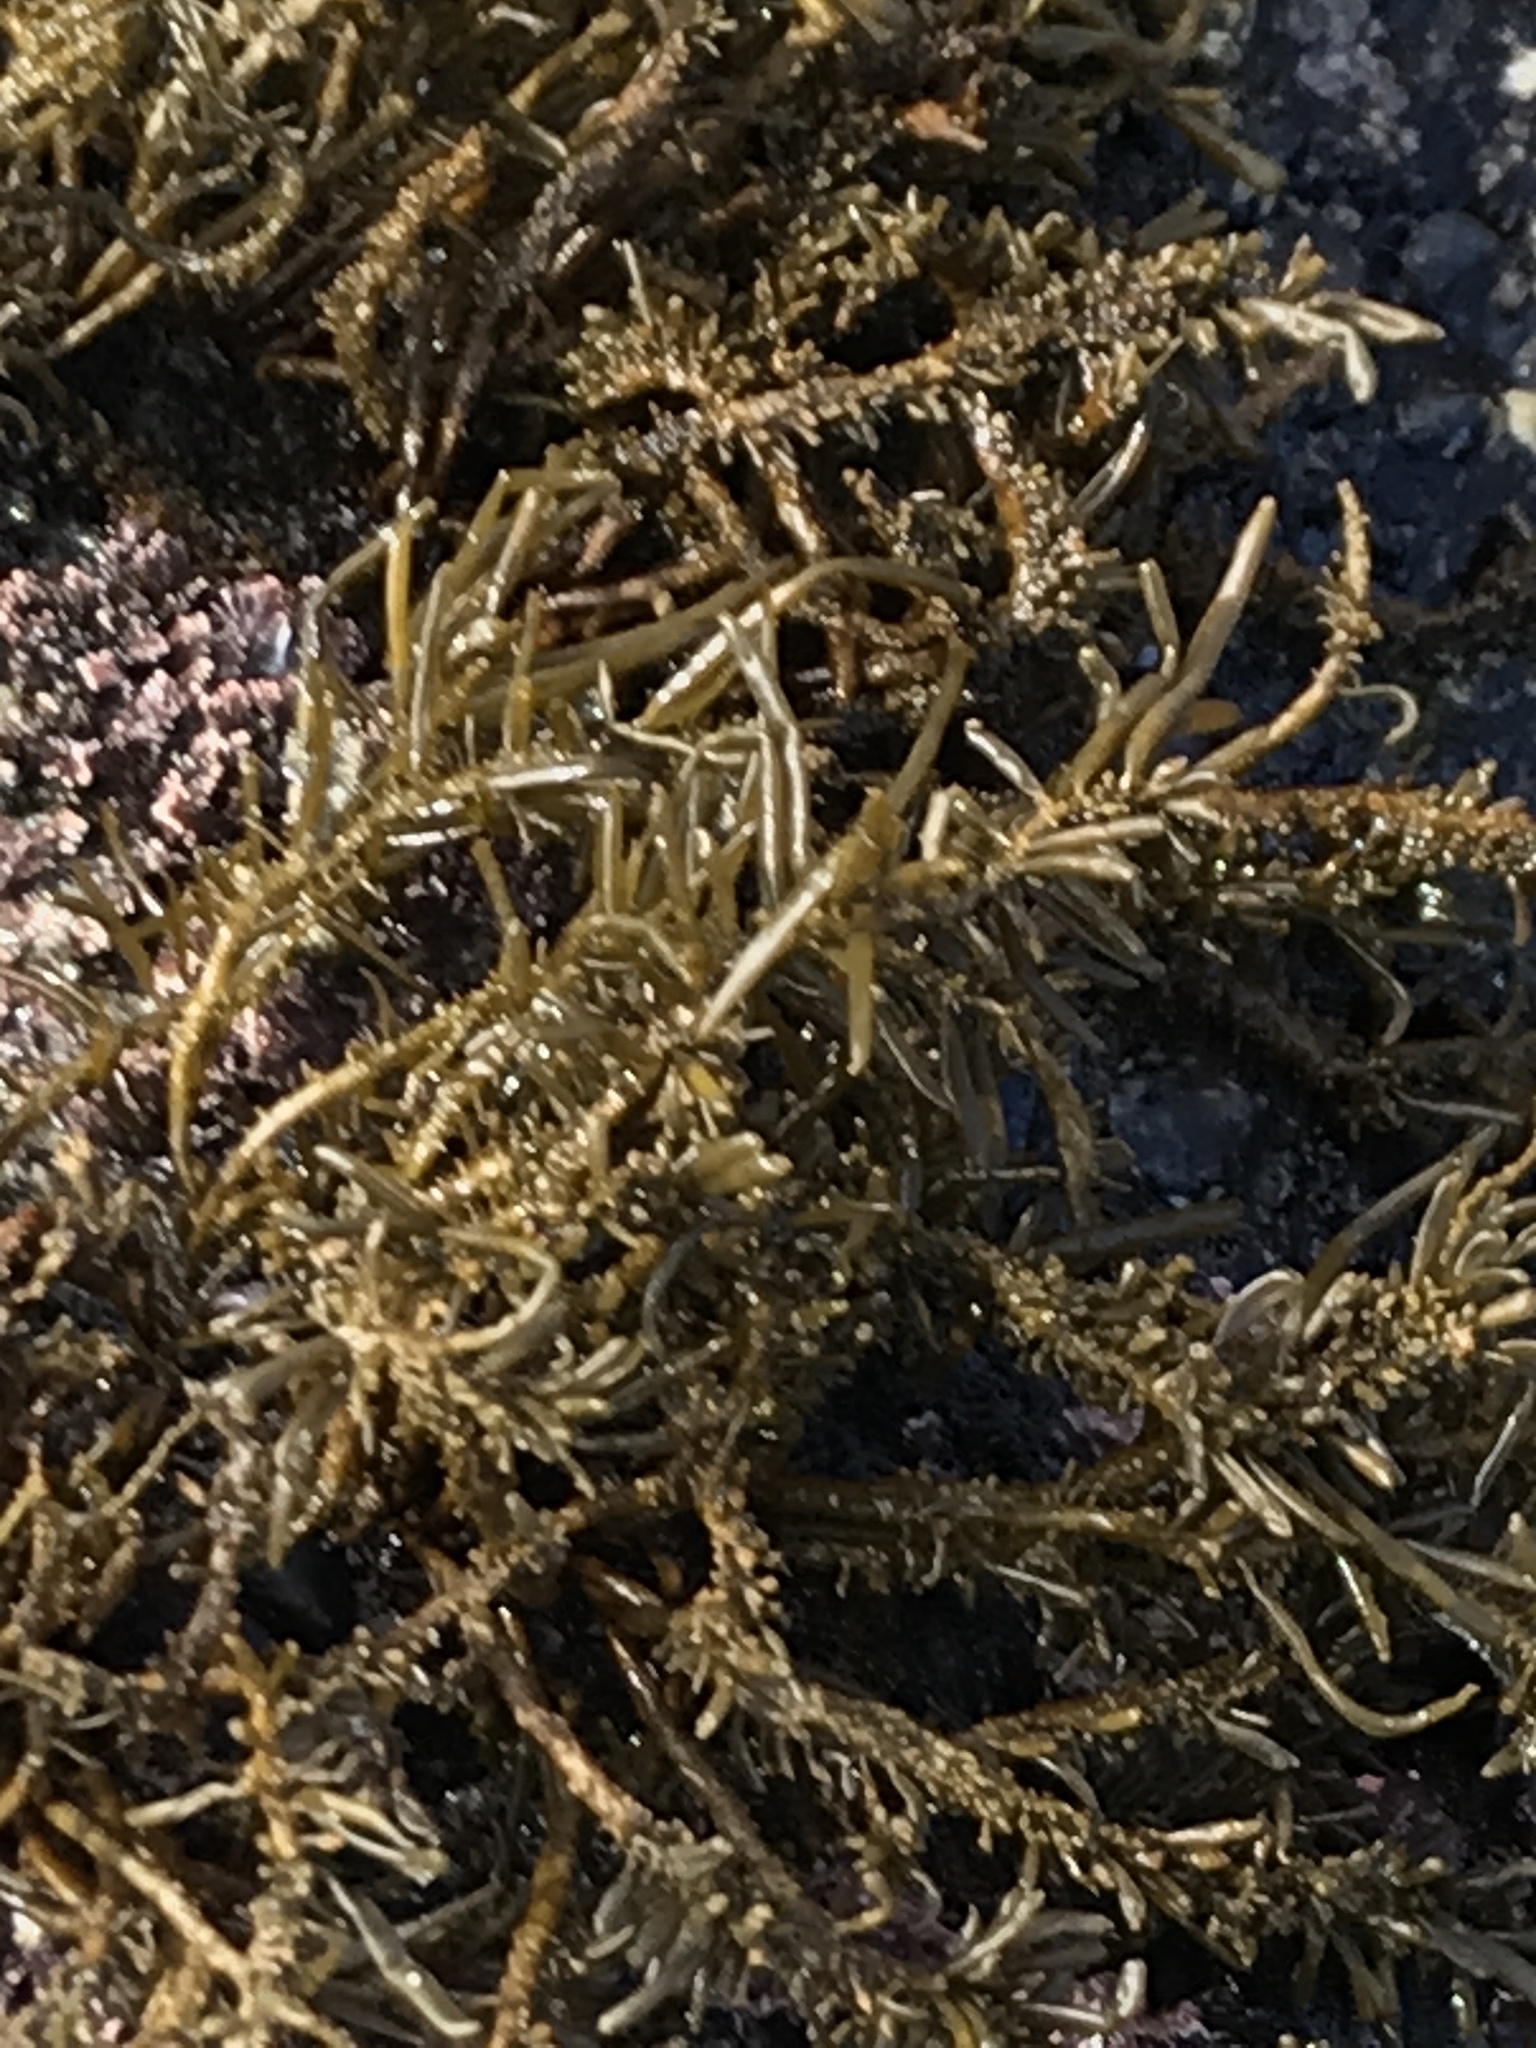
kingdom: Chromista
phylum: Ochrophyta
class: Phaeophyceae
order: Scytosiphonales
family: Scytosiphonaceae
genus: Analipus
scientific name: Analipus japonicus
